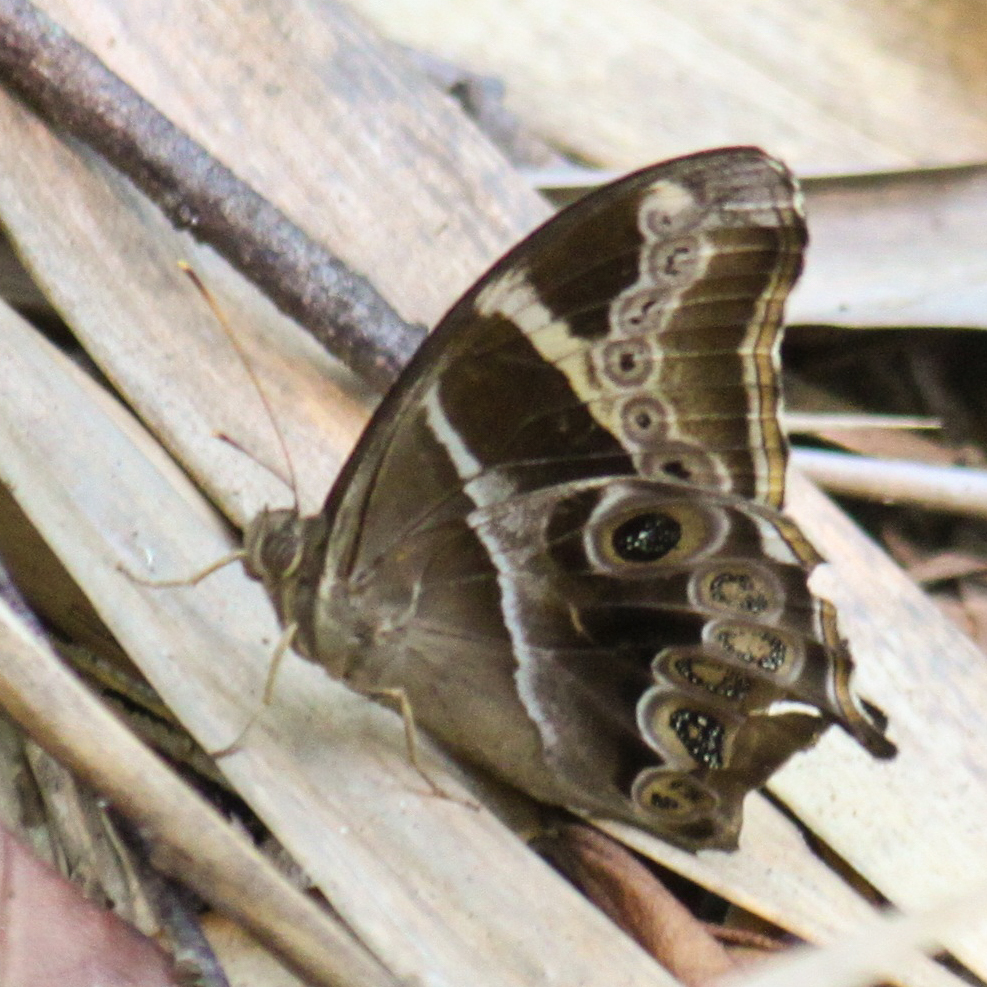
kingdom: Animalia
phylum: Arthropoda
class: Insecta
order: Lepidoptera
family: Nymphalidae
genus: Lethe
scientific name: Lethe europa
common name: Bamboo treebrown
